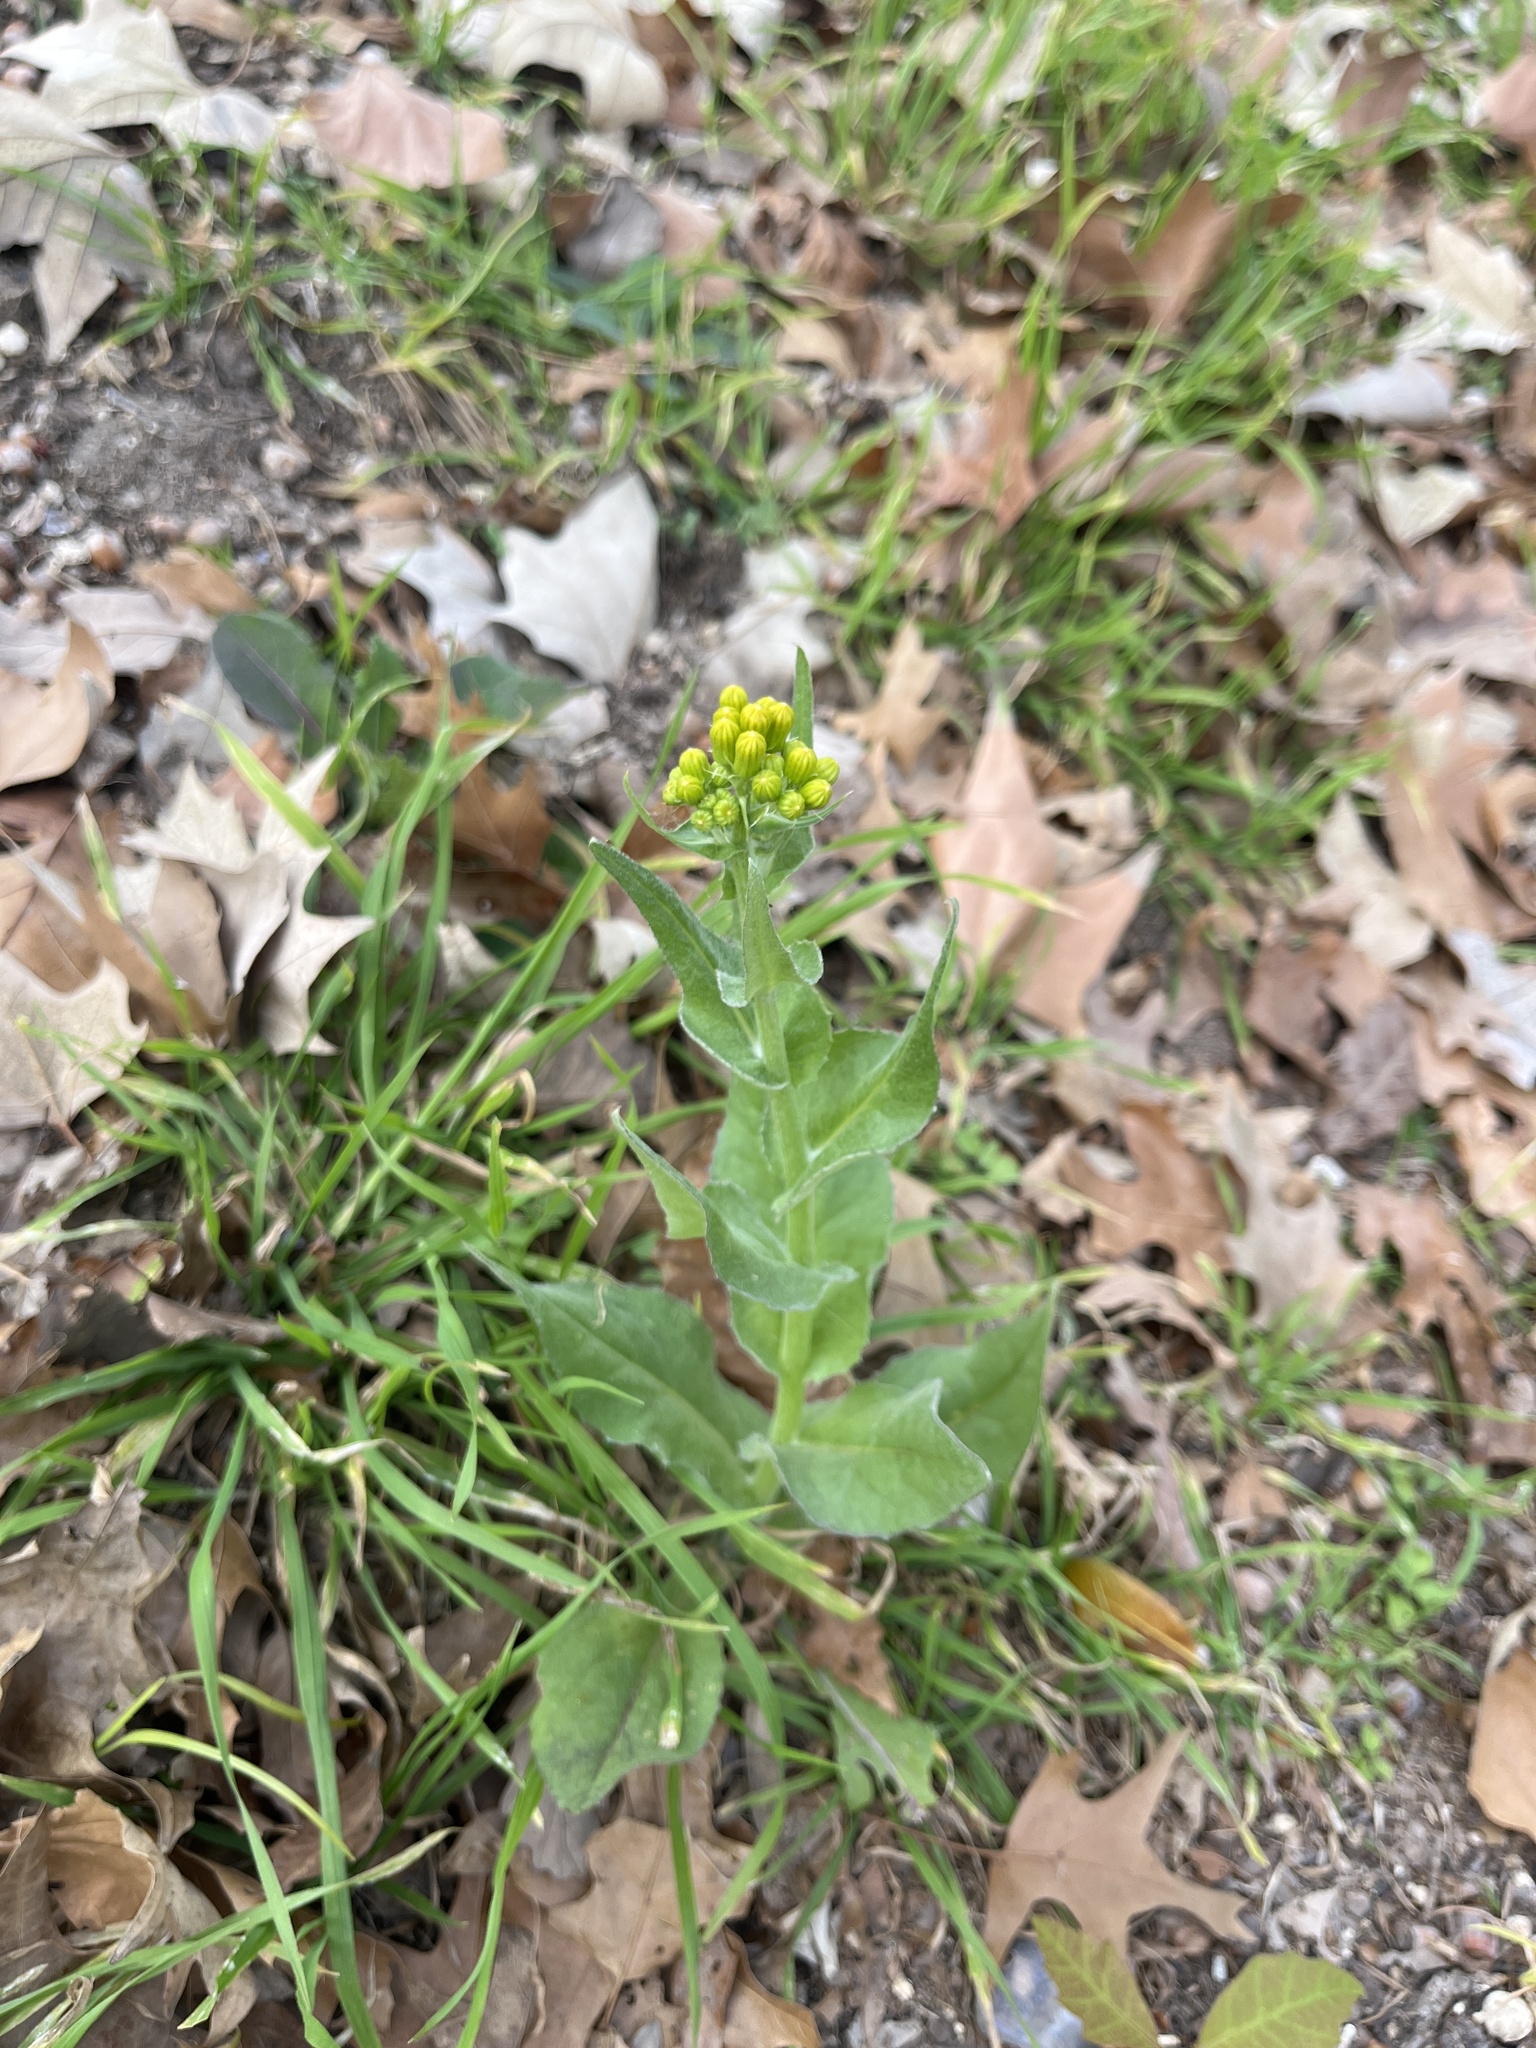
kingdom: Plantae
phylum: Tracheophyta
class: Magnoliopsida
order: Asterales
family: Asteraceae
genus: Senecio
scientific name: Senecio ampullaceus
